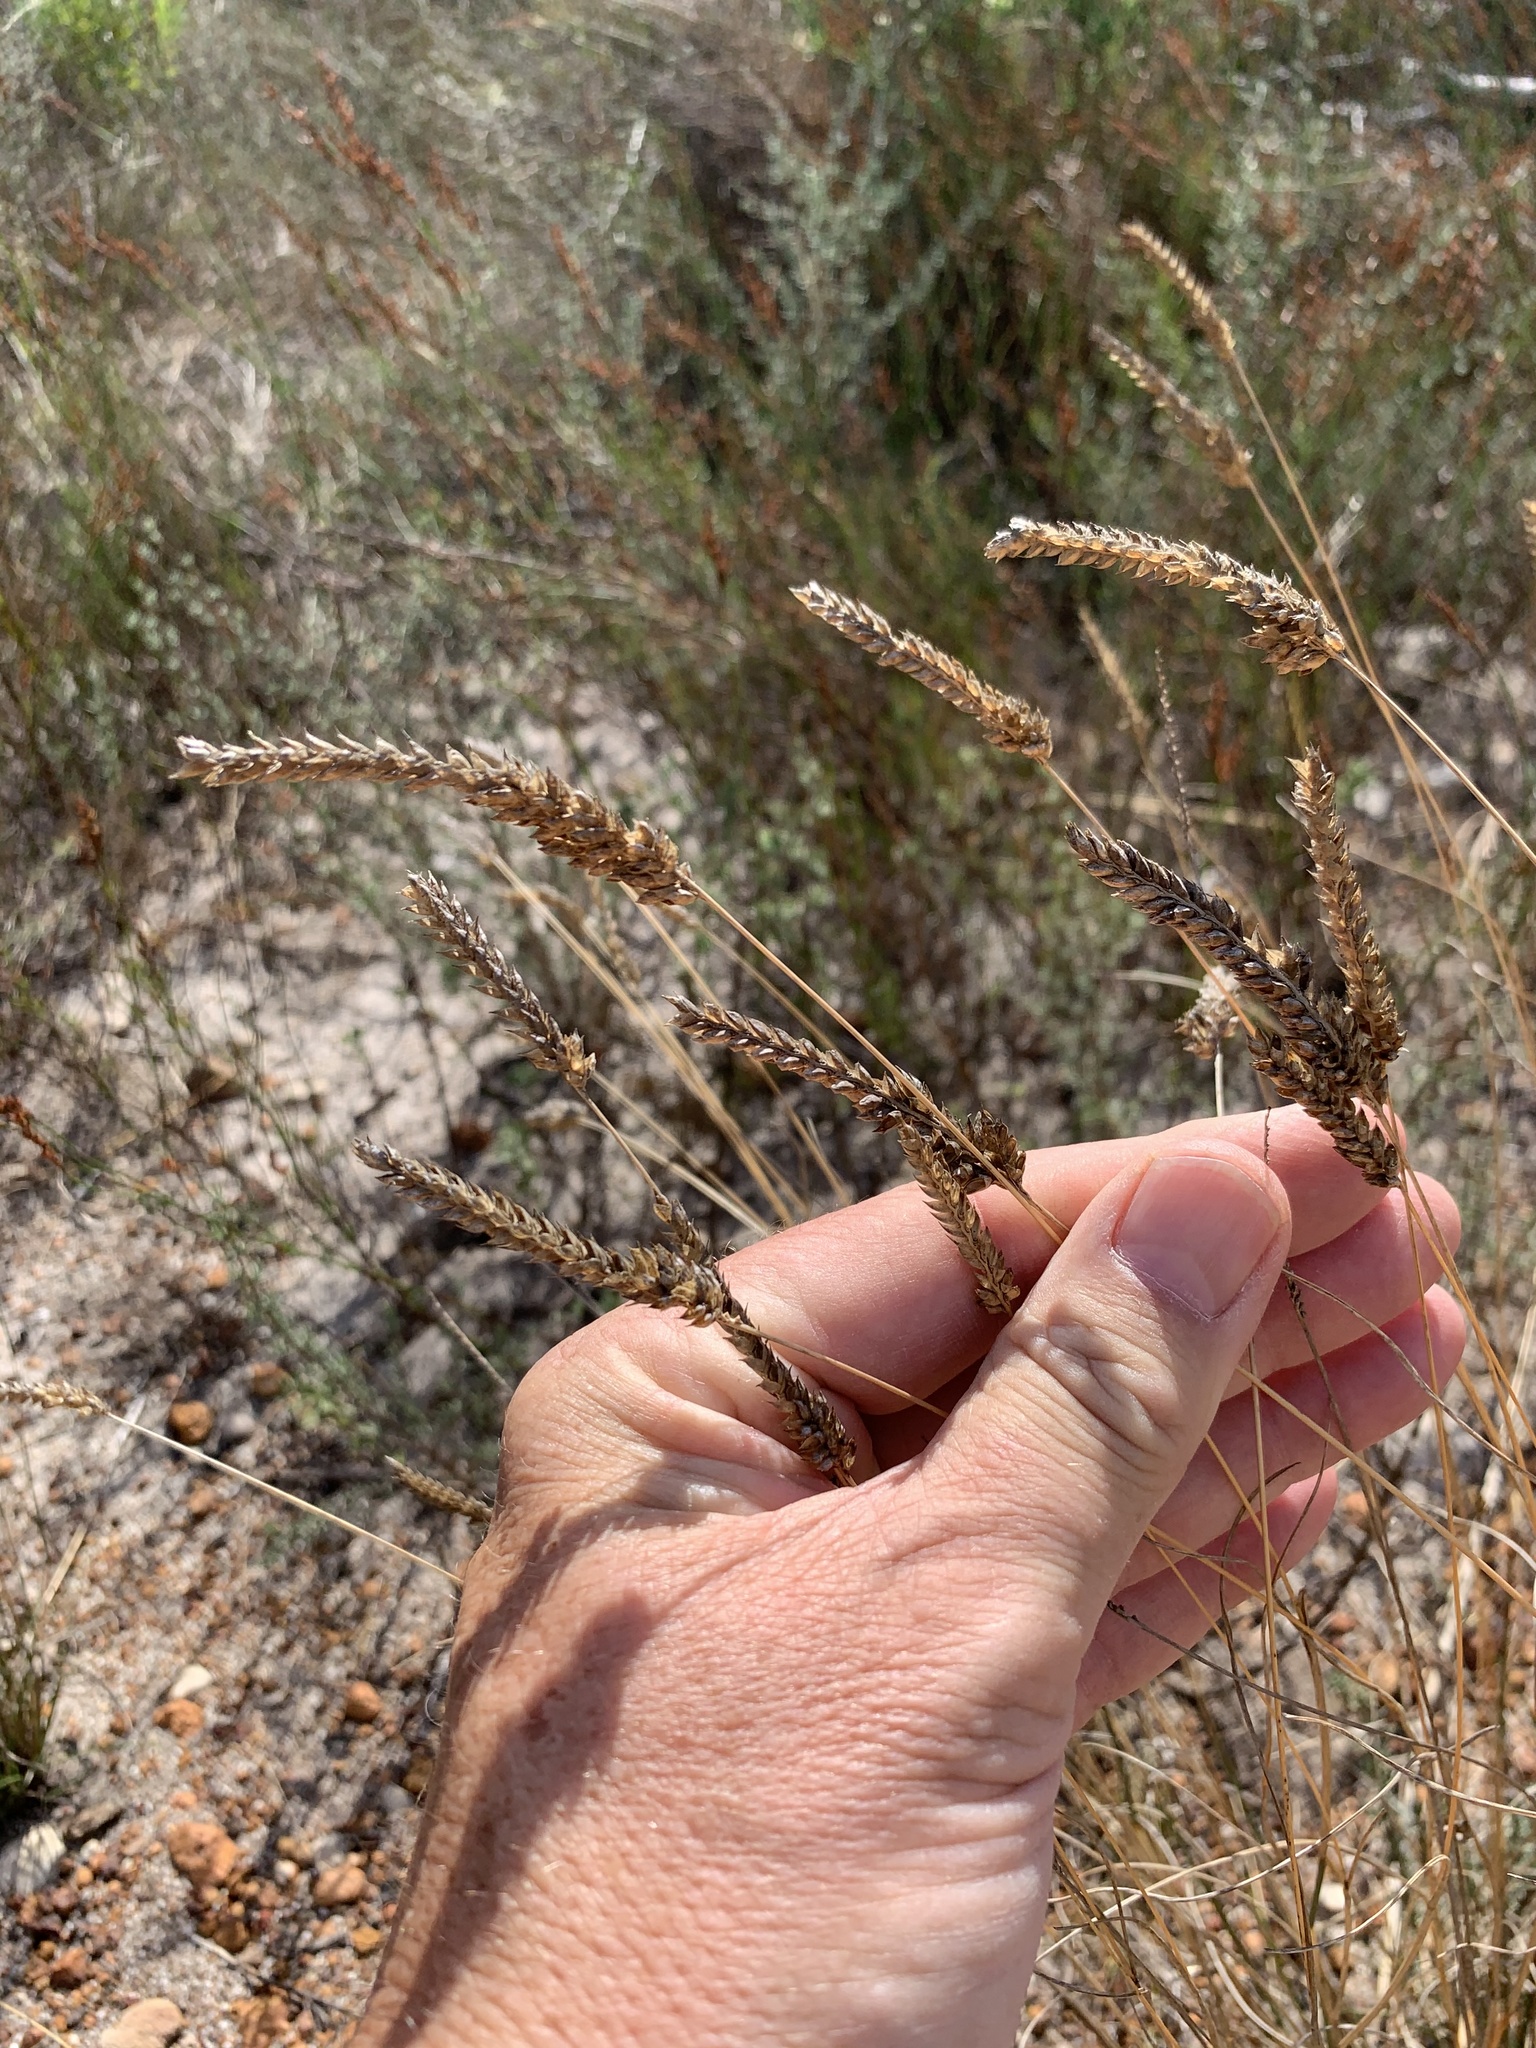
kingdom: Plantae
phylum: Tracheophyta
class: Liliopsida
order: Poales
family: Poaceae
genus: Tribolium
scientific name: Tribolium uniolae
